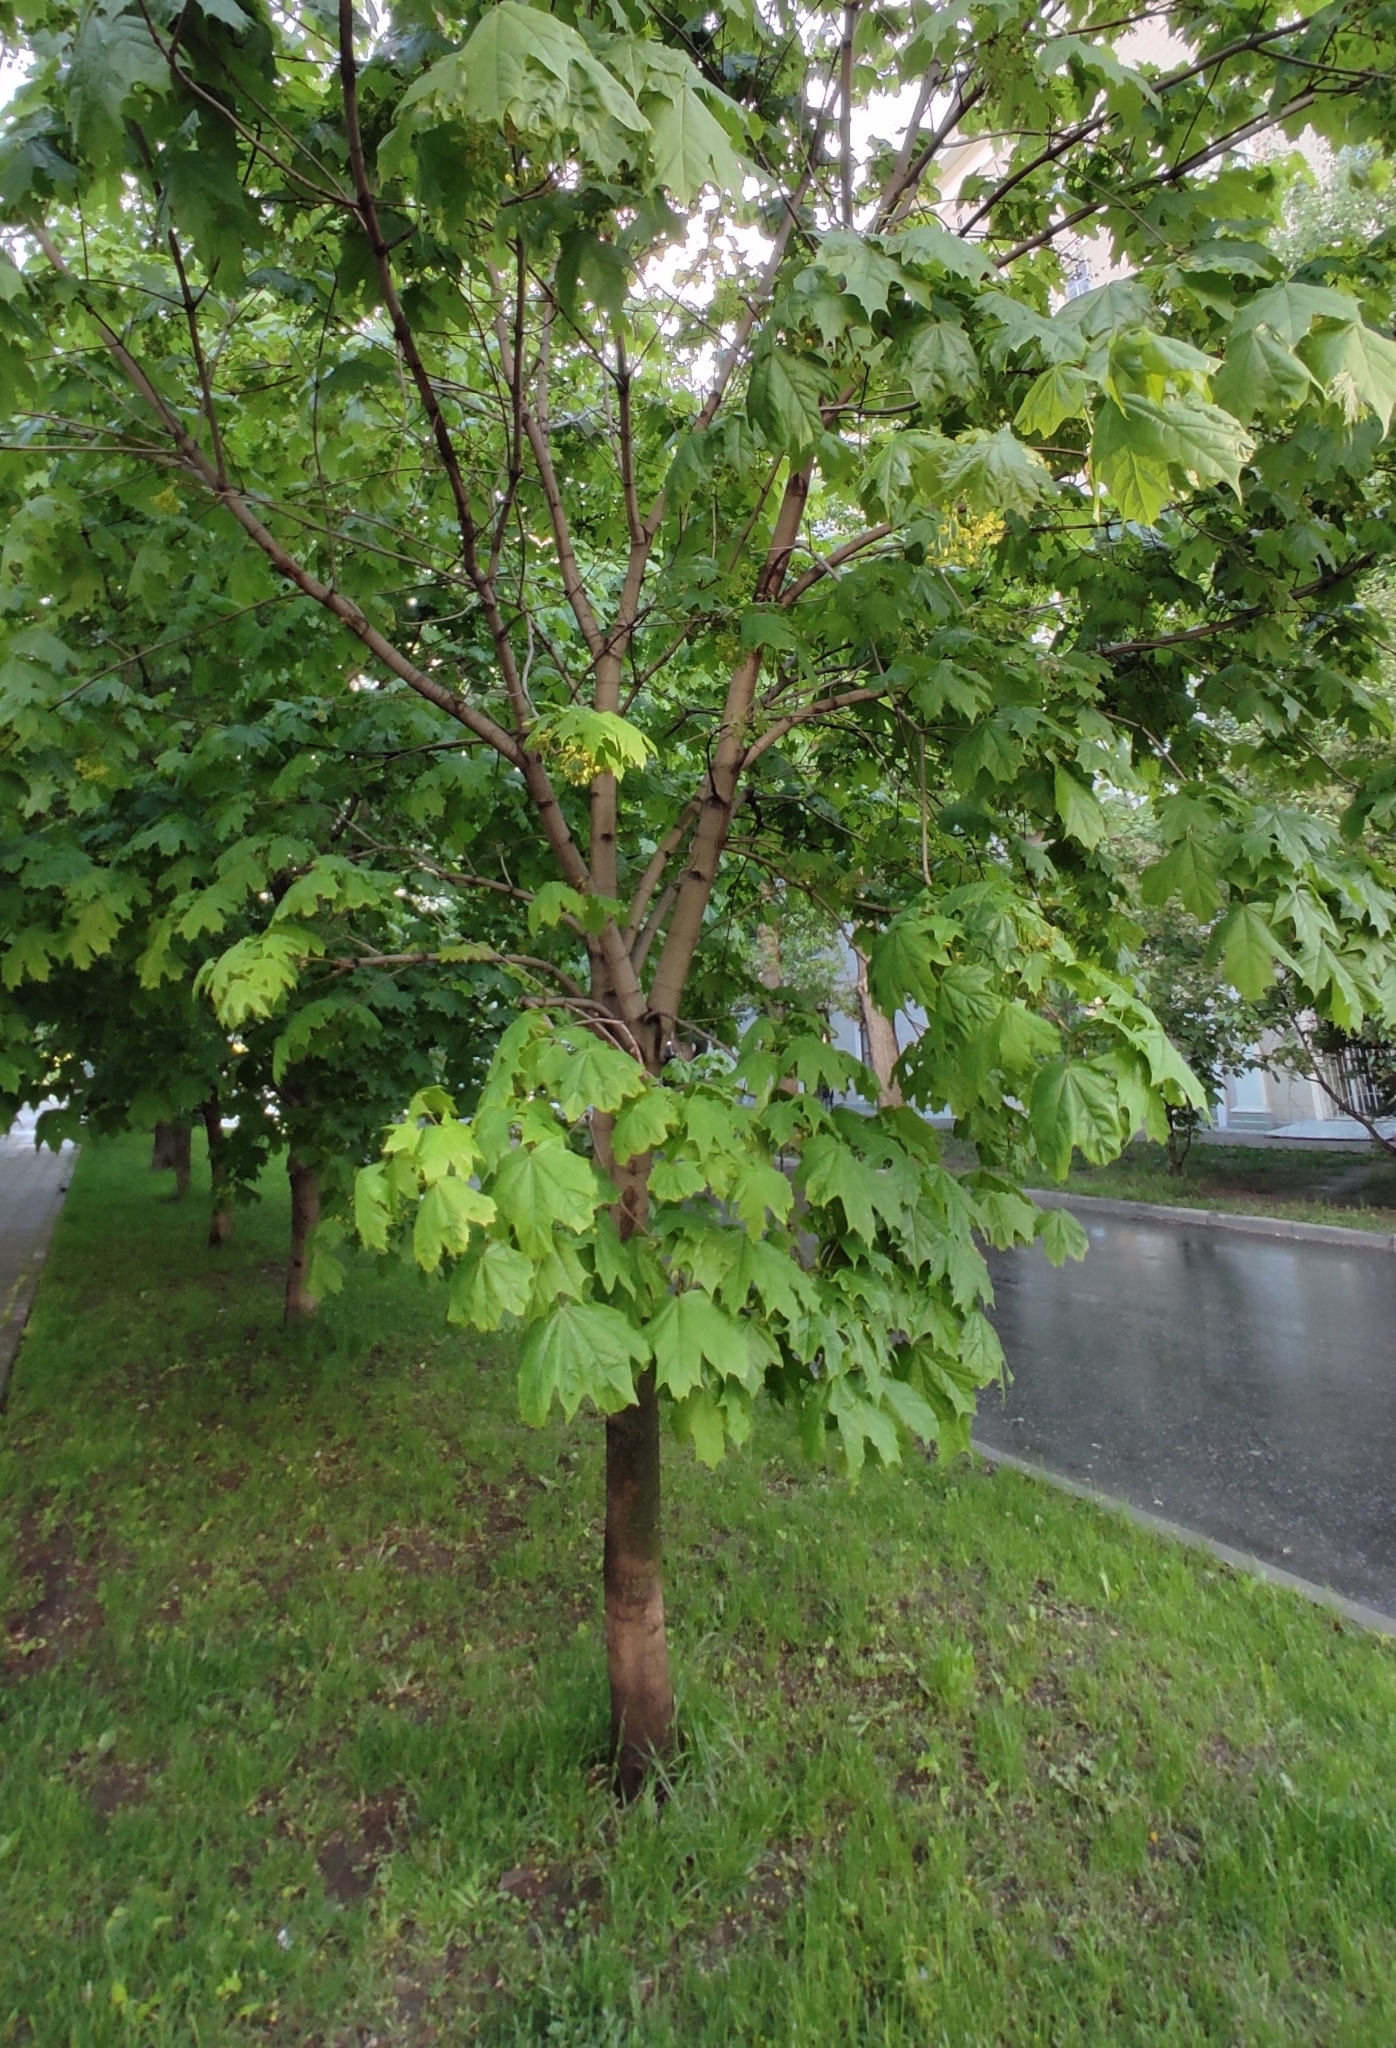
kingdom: Plantae
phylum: Tracheophyta
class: Magnoliopsida
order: Sapindales
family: Sapindaceae
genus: Acer
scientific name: Acer platanoides
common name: Norway maple
